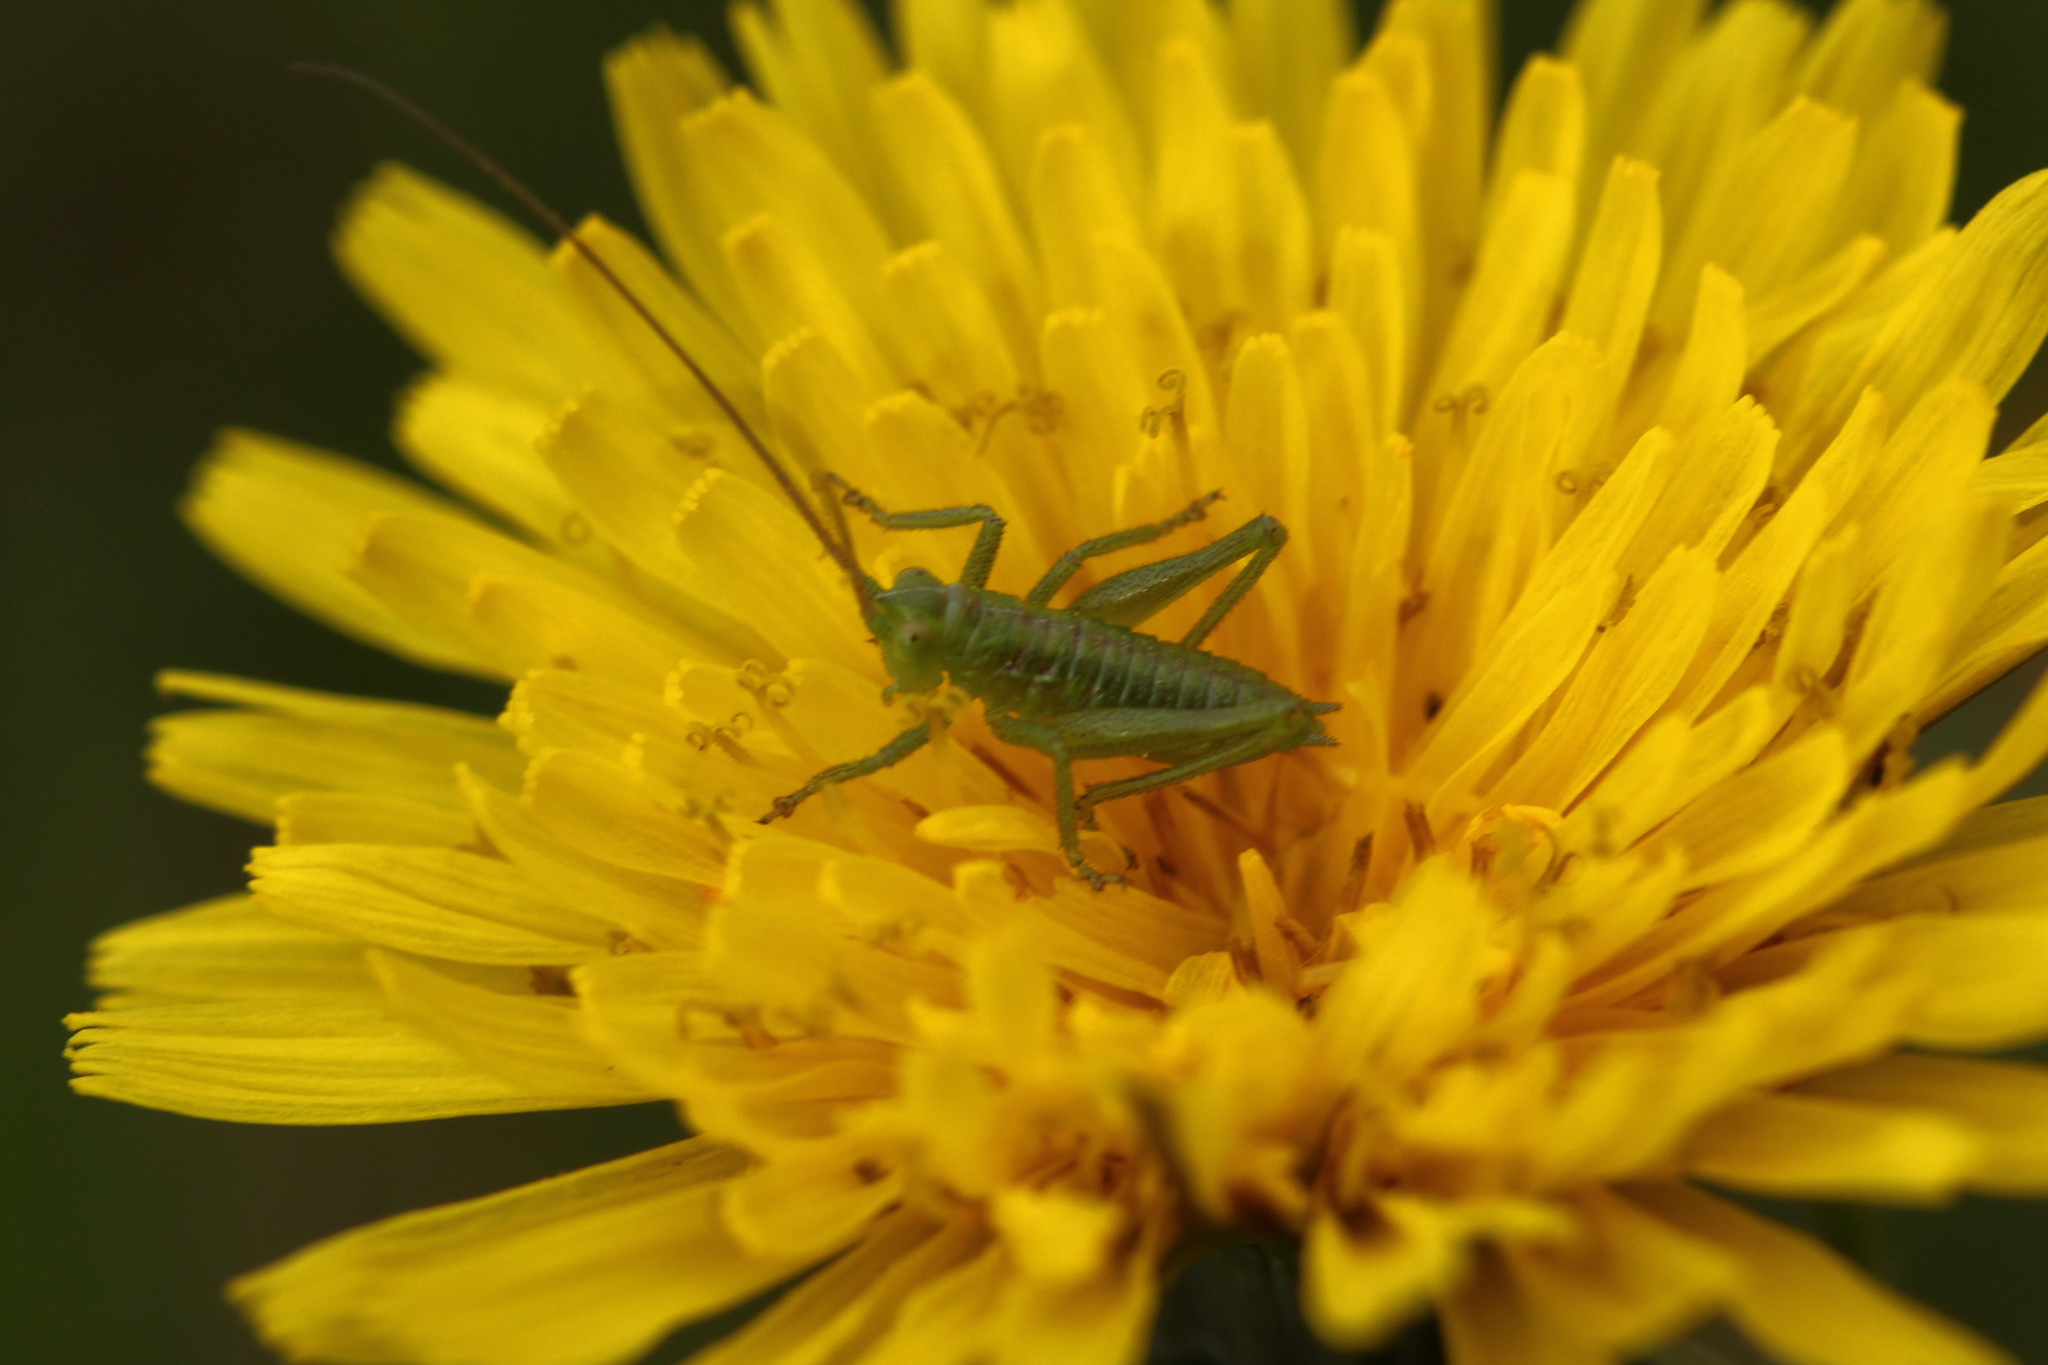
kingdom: Animalia
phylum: Arthropoda
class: Insecta
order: Orthoptera
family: Tettigoniidae
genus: Tettigonia
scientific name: Tettigonia viridissima
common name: Great green bush-cricket
